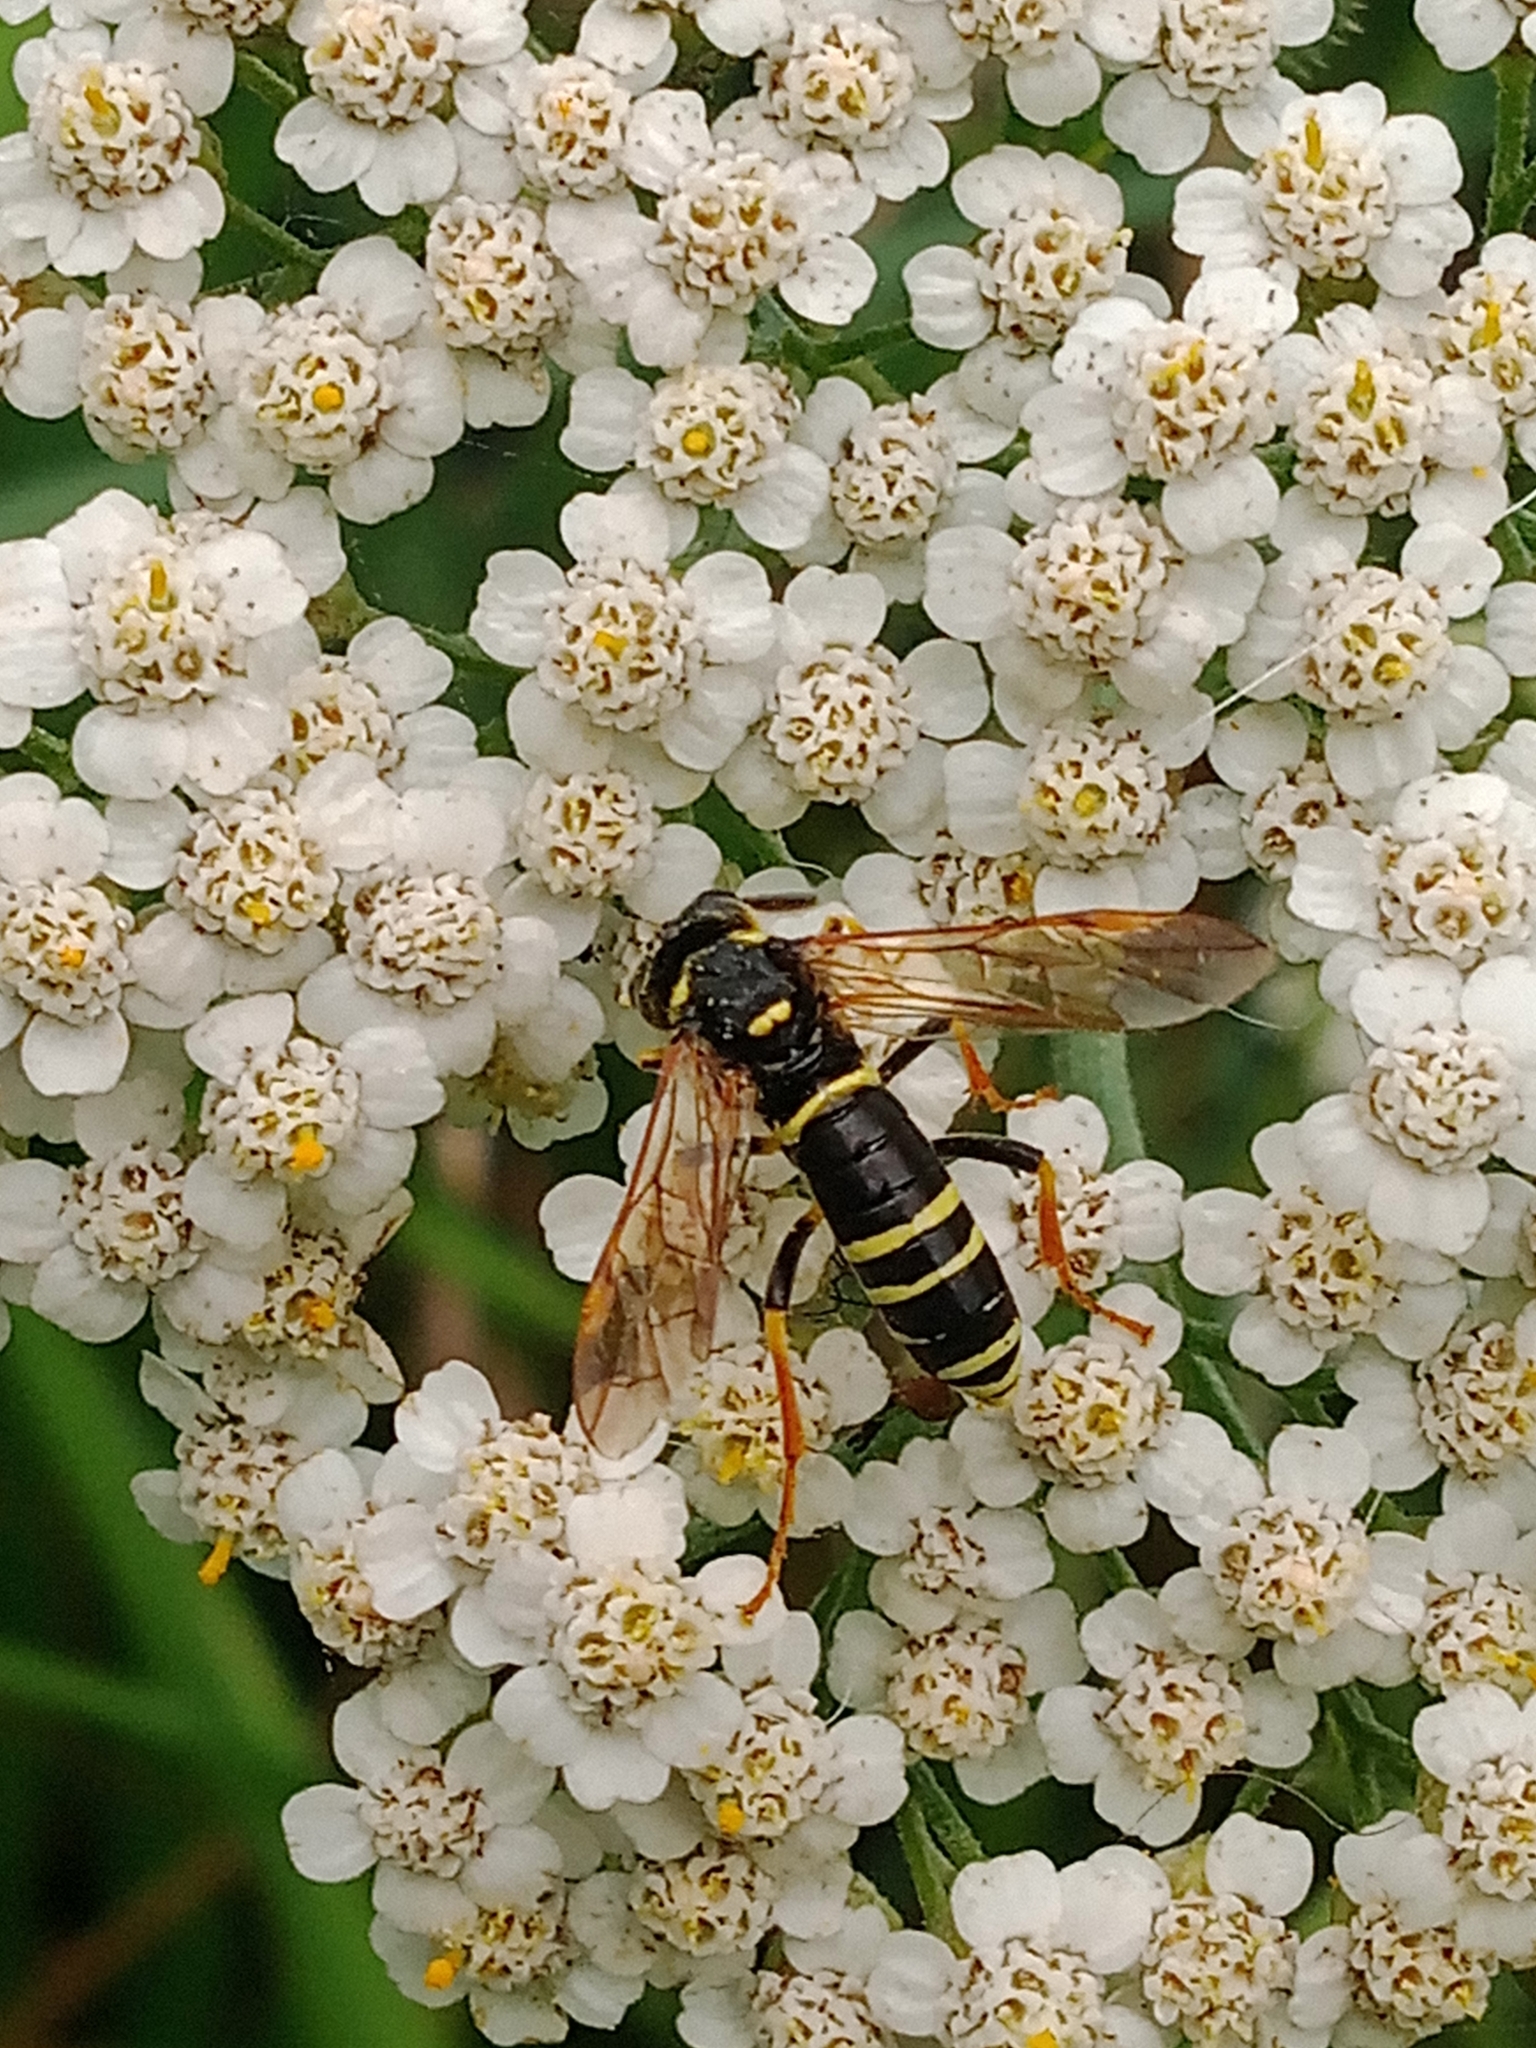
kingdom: Animalia
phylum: Arthropoda
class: Insecta
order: Hymenoptera
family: Tenthredinidae
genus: Tenthredo
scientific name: Tenthredo omissa
